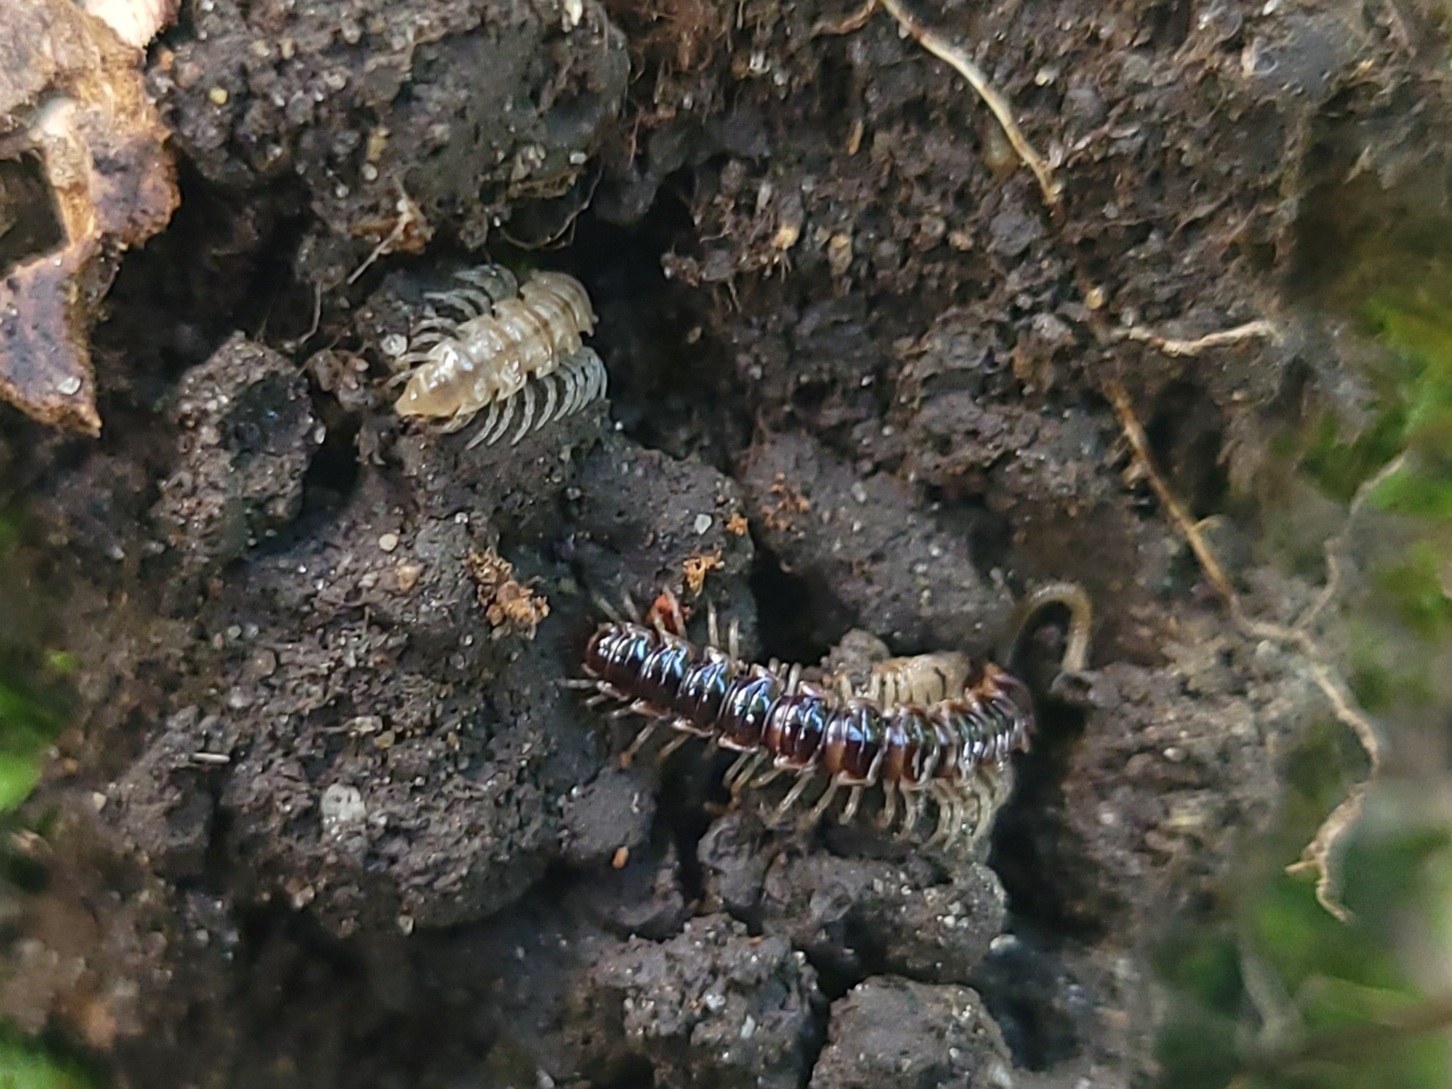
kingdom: Animalia
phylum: Arthropoda
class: Diplopoda
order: Polydesmida
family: Paradoxosomatidae
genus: Oxidus
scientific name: Oxidus gracilis
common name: Greenhouse millipede
